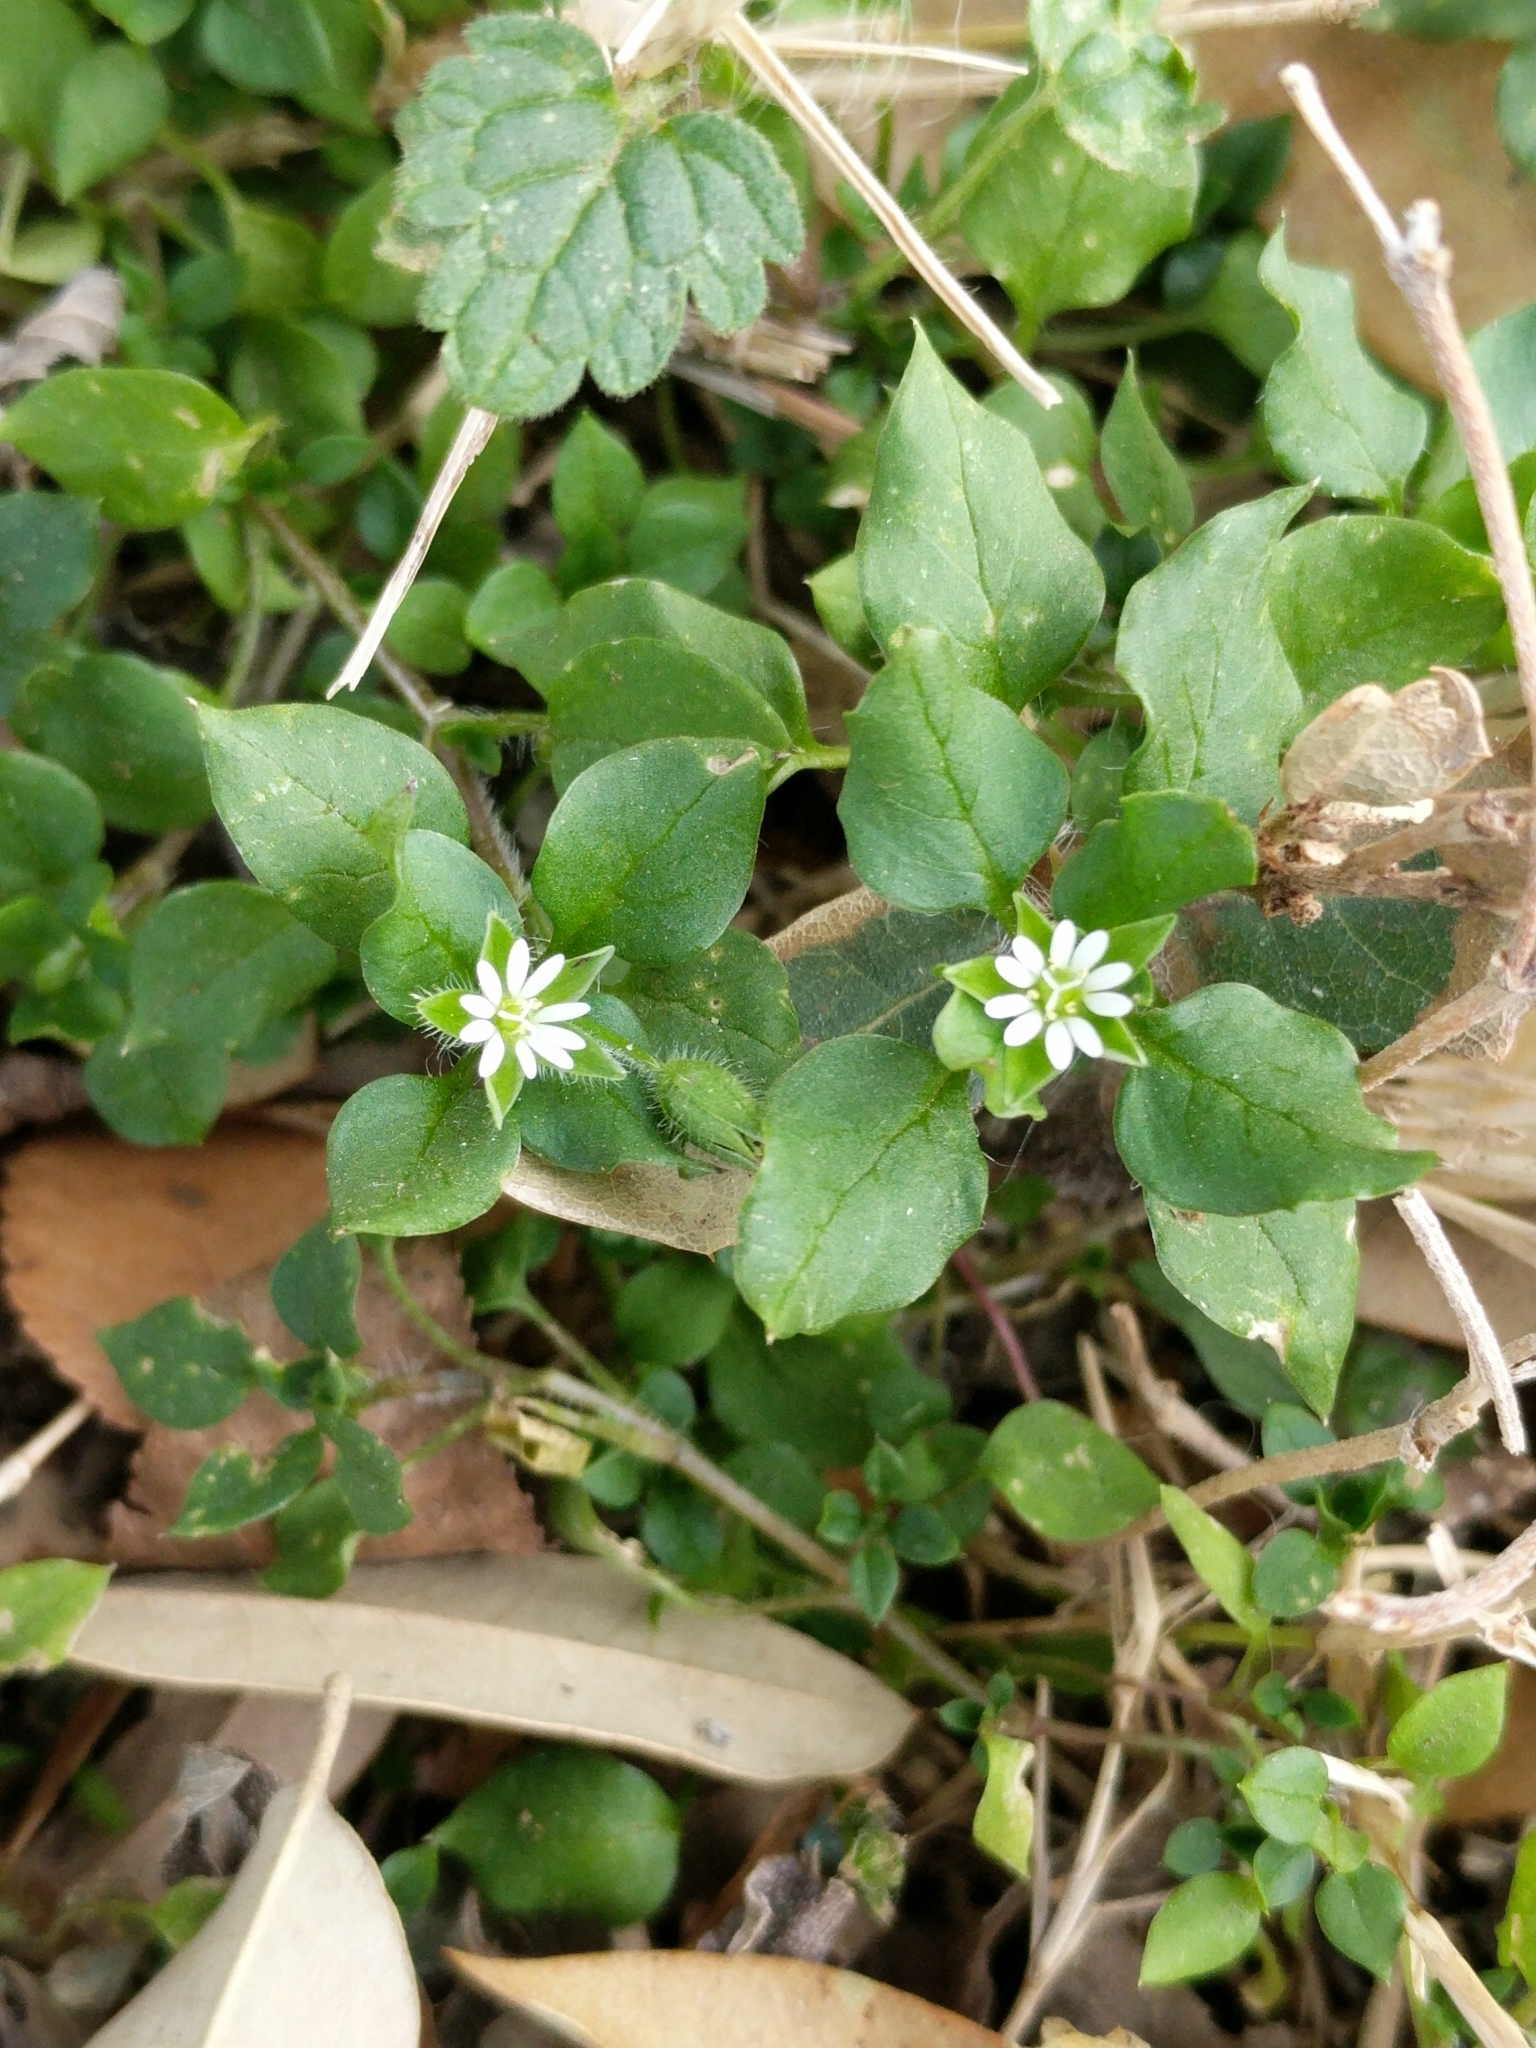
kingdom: Plantae
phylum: Tracheophyta
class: Magnoliopsida
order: Caryophyllales
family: Caryophyllaceae
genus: Stellaria
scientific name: Stellaria media
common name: Common chickweed
